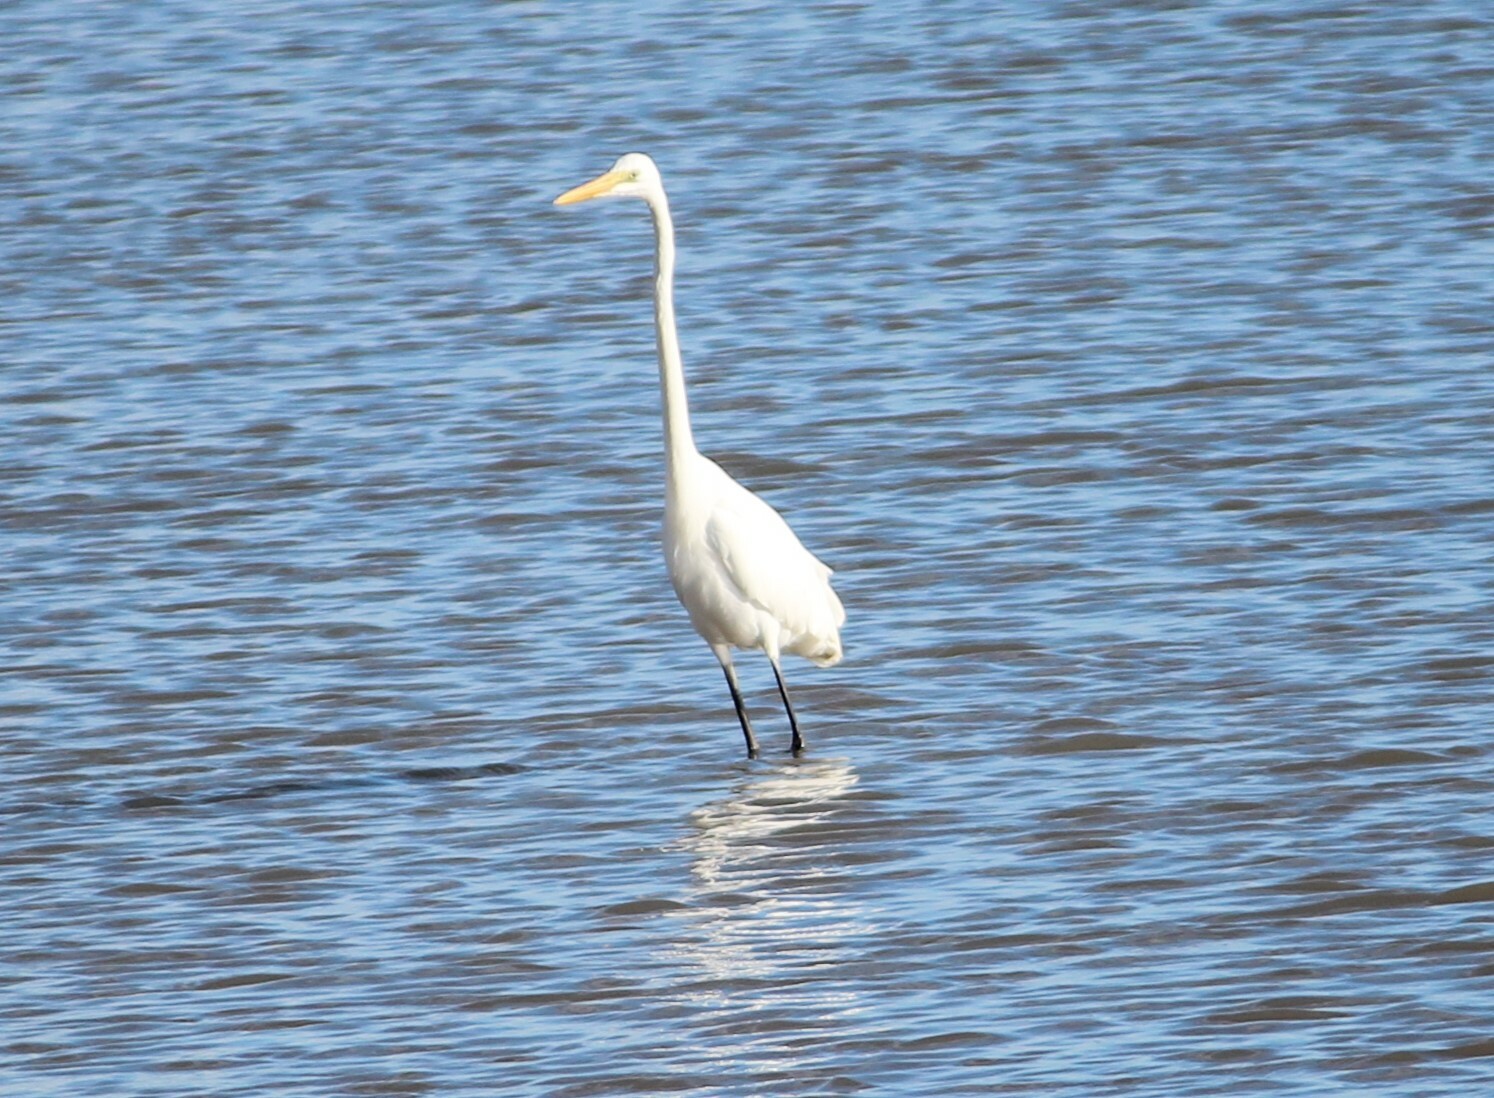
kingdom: Animalia
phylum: Chordata
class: Aves
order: Pelecaniformes
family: Ardeidae
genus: Ardea
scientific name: Ardea alba
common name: Great egret
